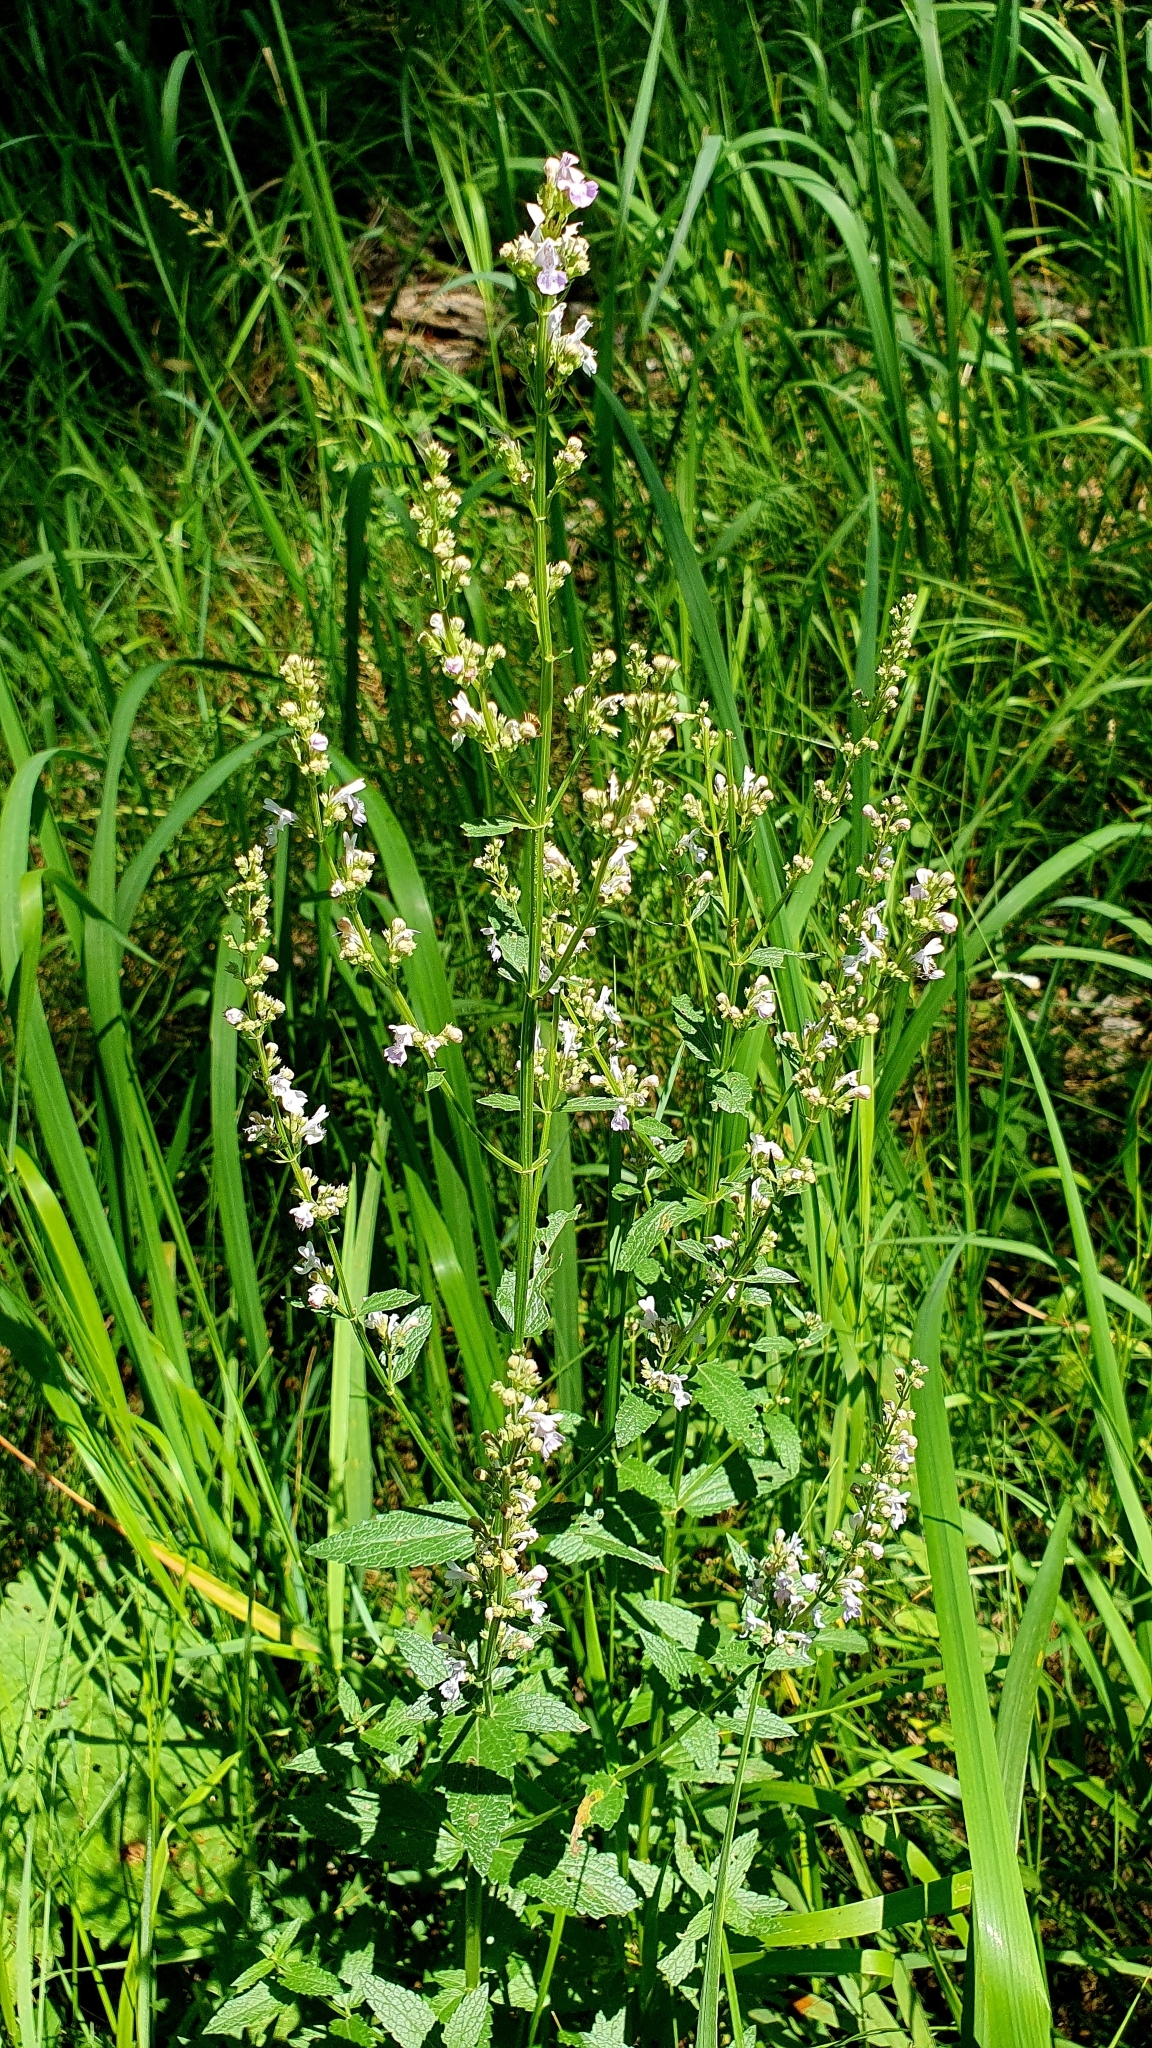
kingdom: Plantae
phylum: Tracheophyta
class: Magnoliopsida
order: Lamiales
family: Lamiaceae
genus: Nepeta
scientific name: Nepeta nuda
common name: Hairless catmint
